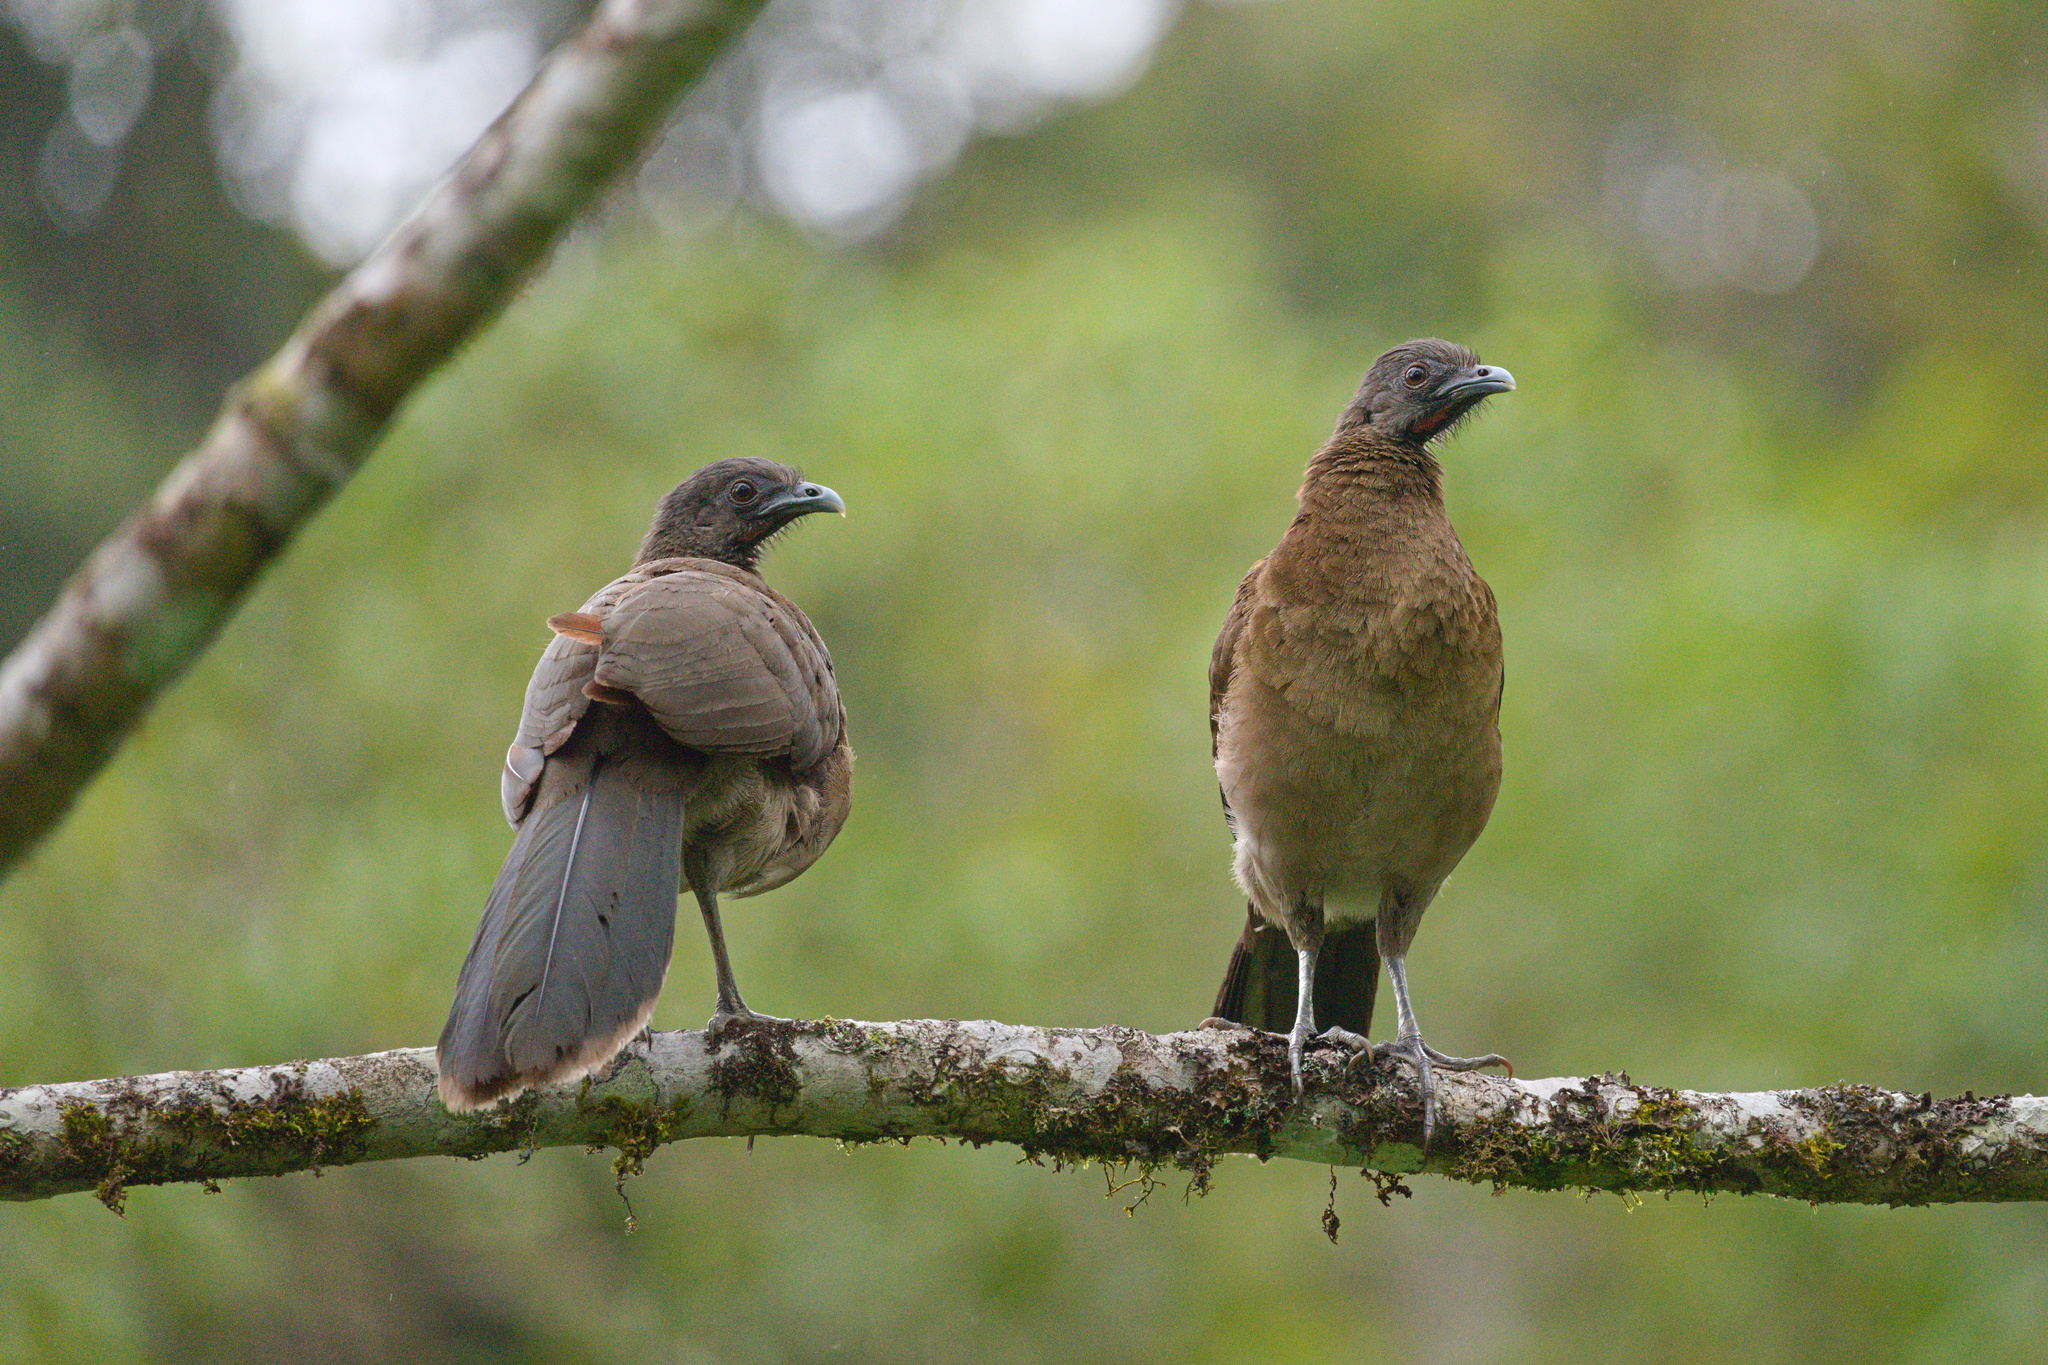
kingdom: Animalia
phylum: Chordata
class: Aves
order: Galliformes
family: Cracidae
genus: Ortalis
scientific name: Ortalis cinereiceps
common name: Grey-headed chachalaca
